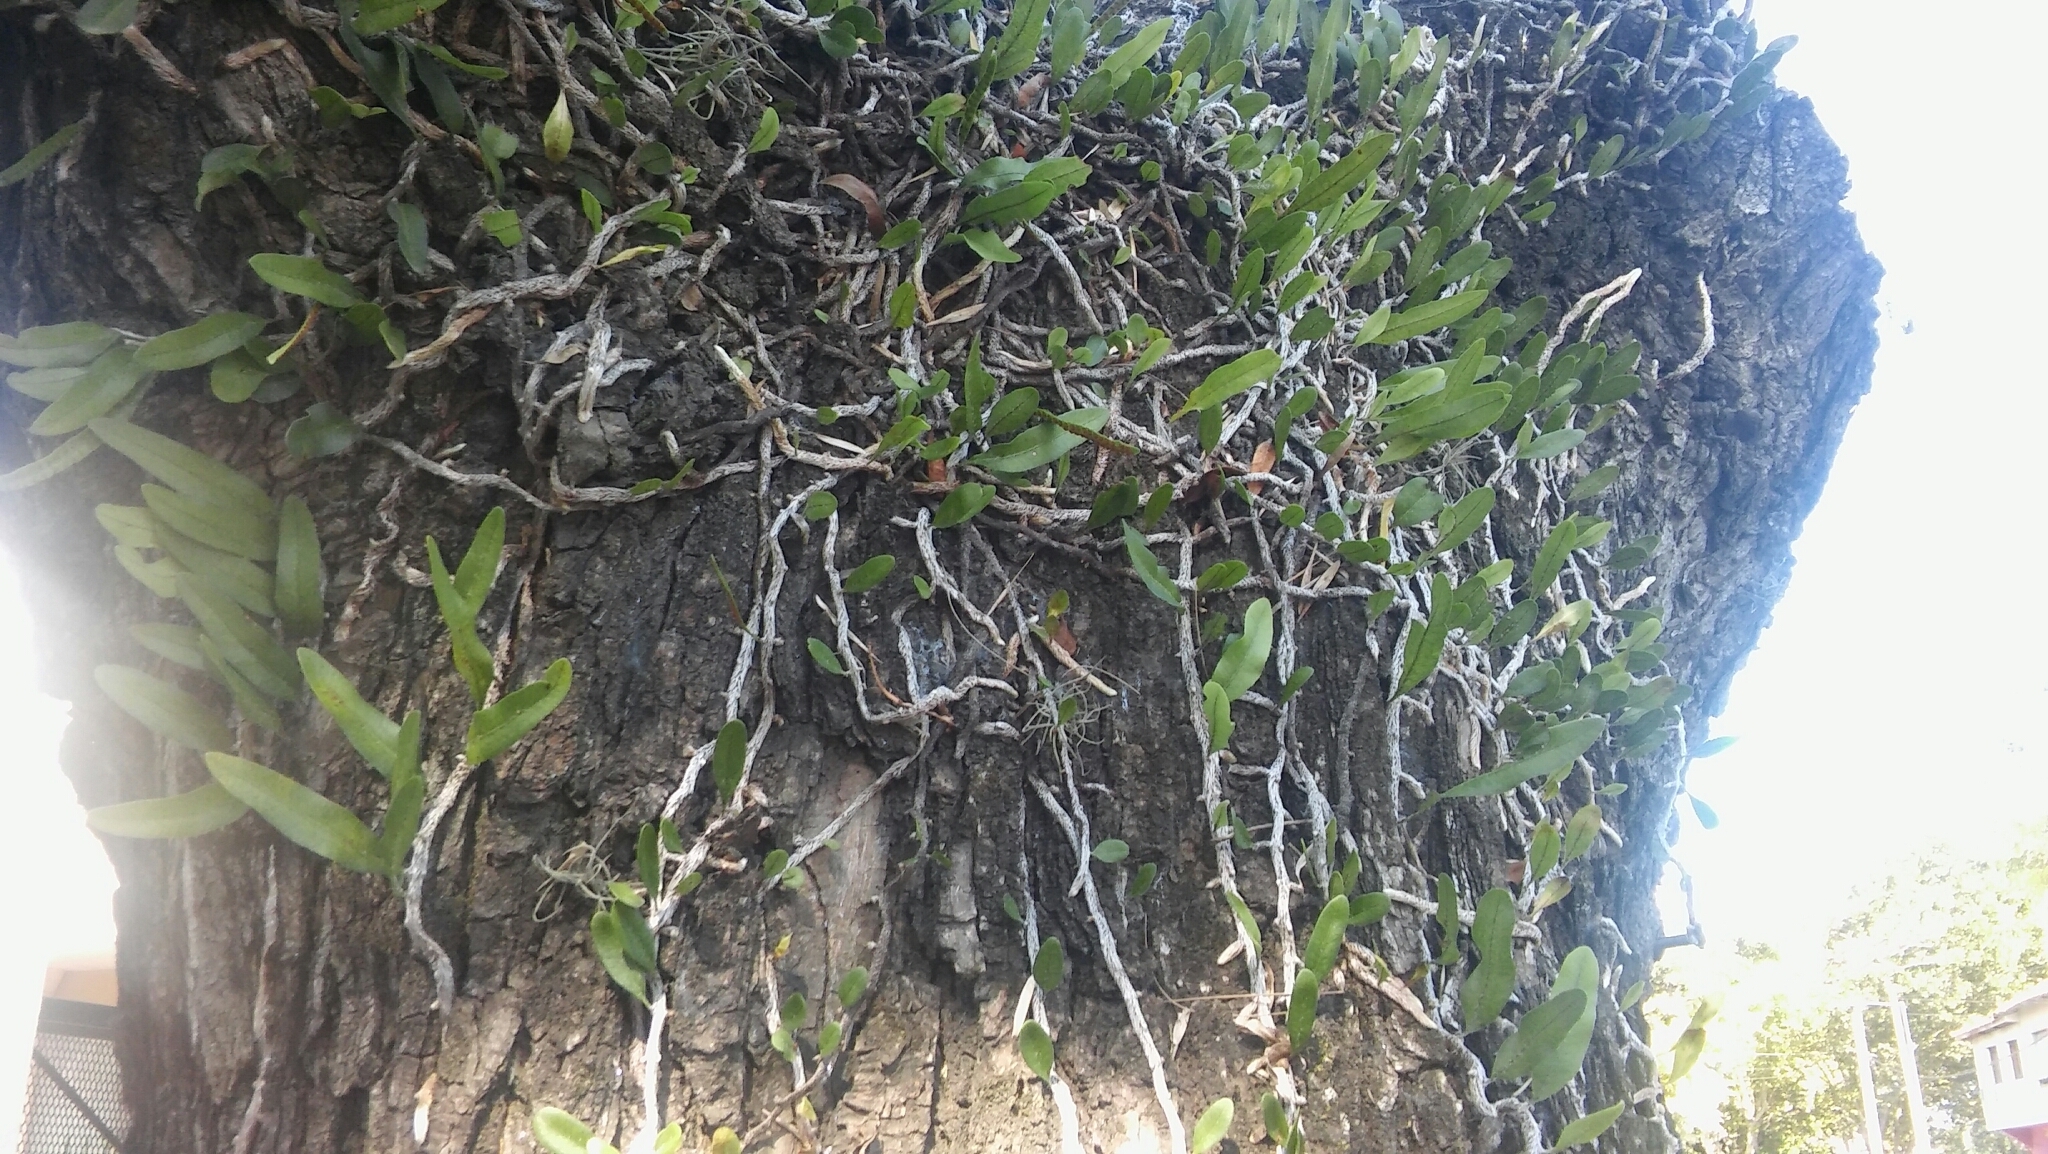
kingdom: Plantae
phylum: Tracheophyta
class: Polypodiopsida
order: Polypodiales
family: Polypodiaceae
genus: Microgramma
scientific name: Microgramma mortoniana
